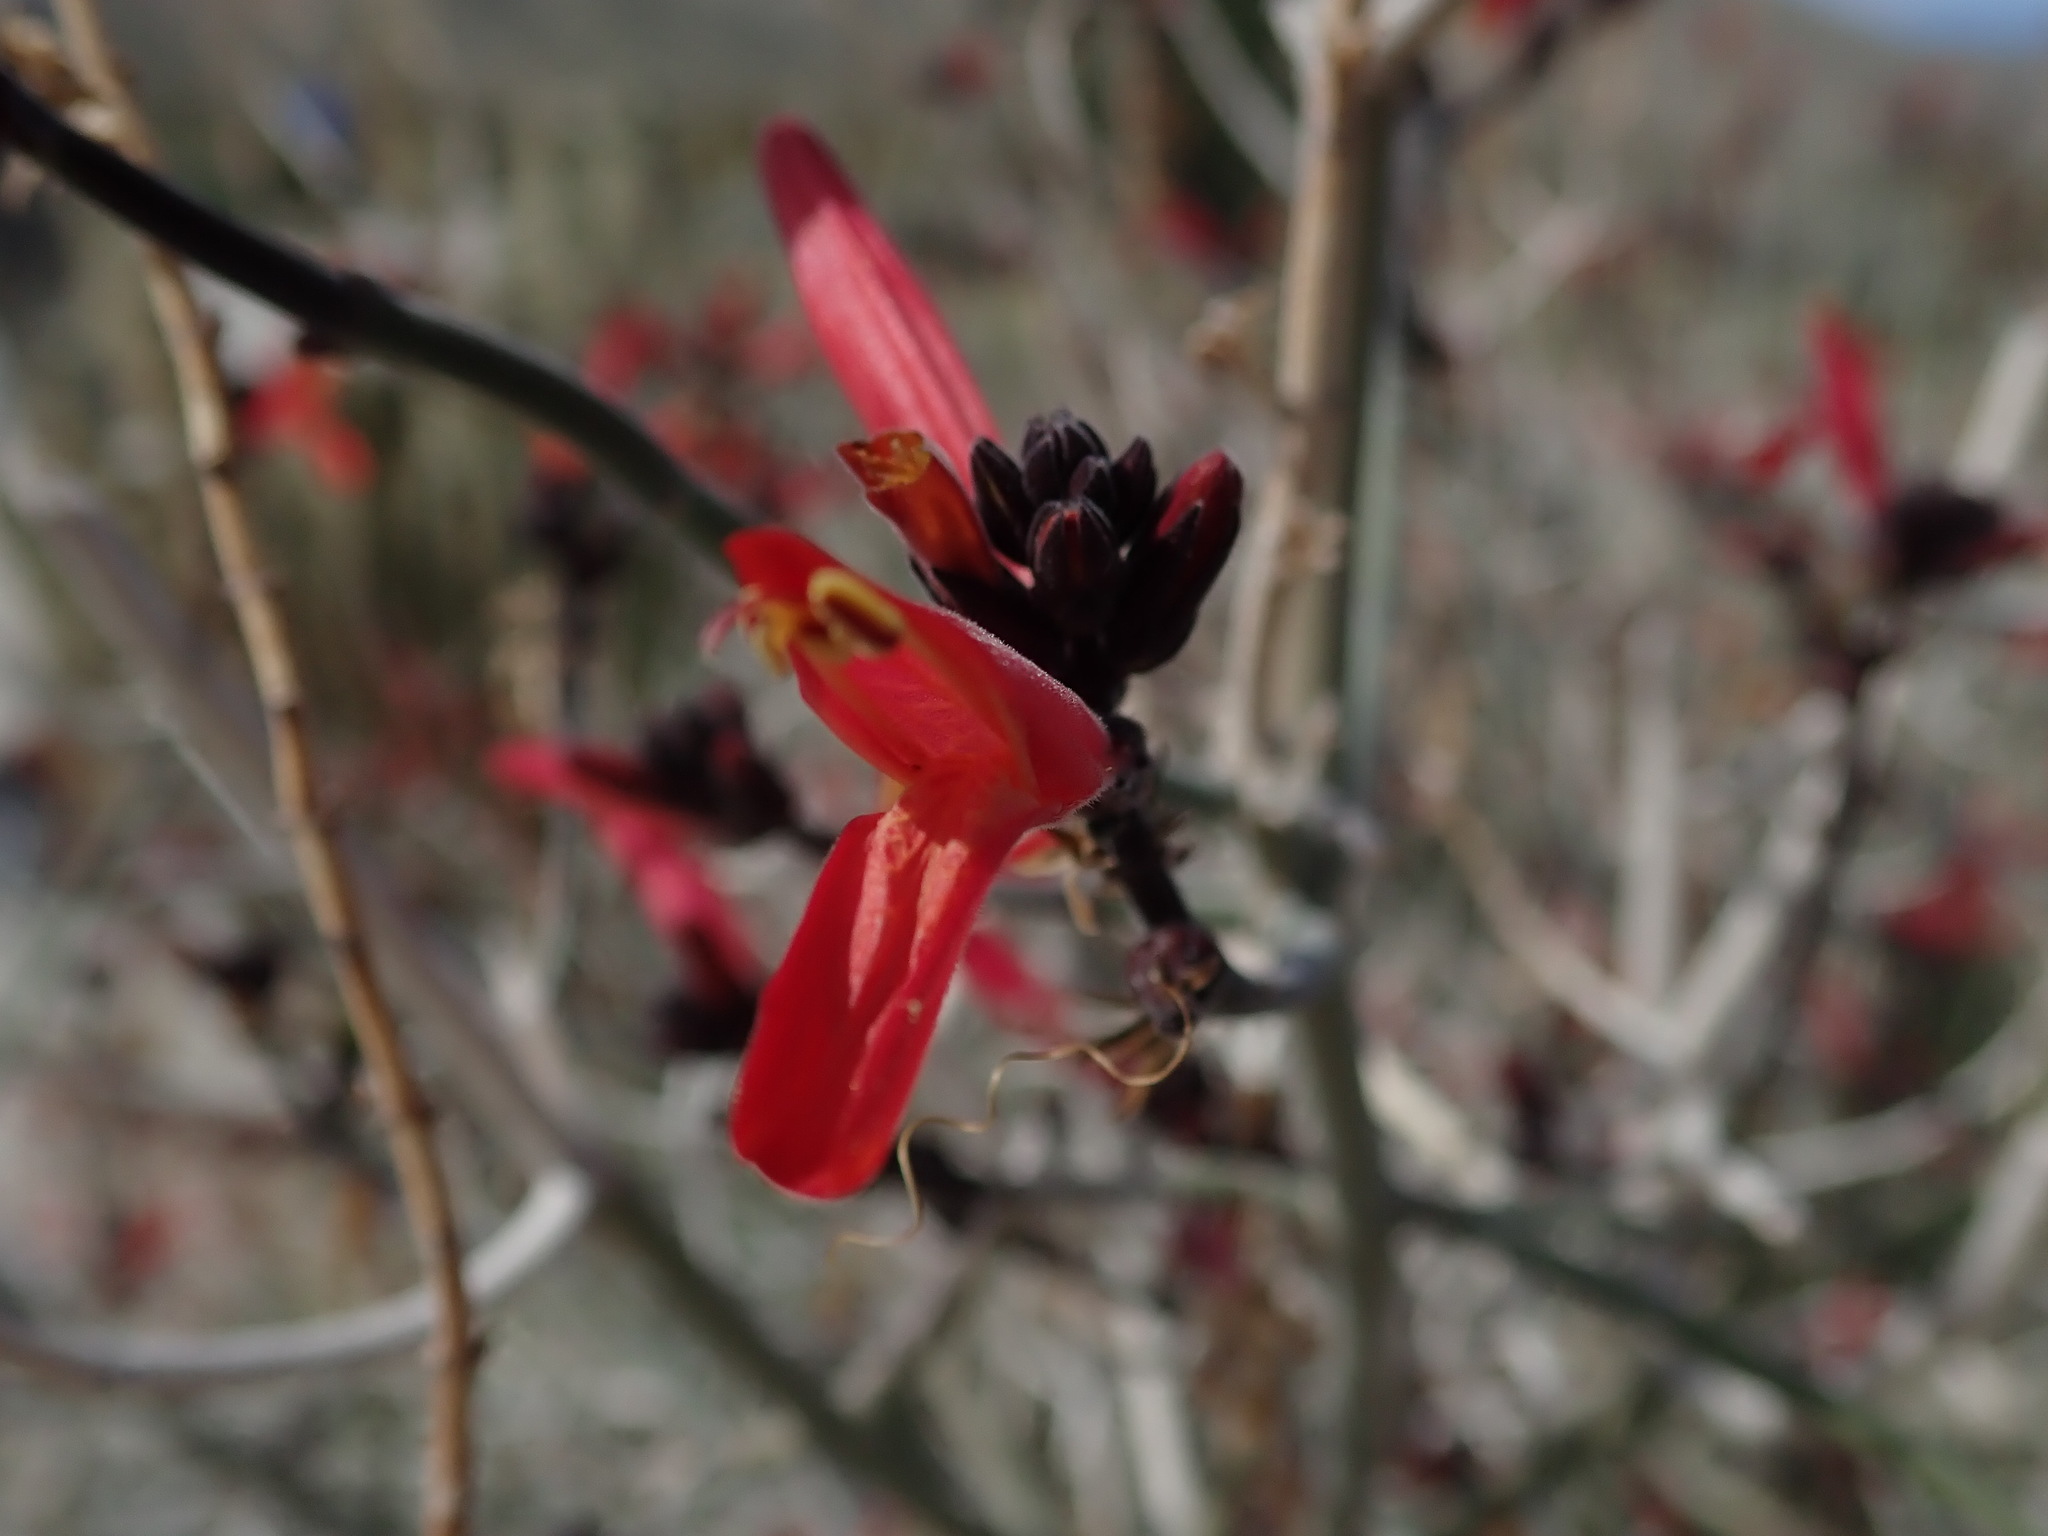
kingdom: Plantae
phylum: Tracheophyta
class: Magnoliopsida
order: Lamiales
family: Acanthaceae
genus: Justicia
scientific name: Justicia californica
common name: Chuparosa-honeysuckle
